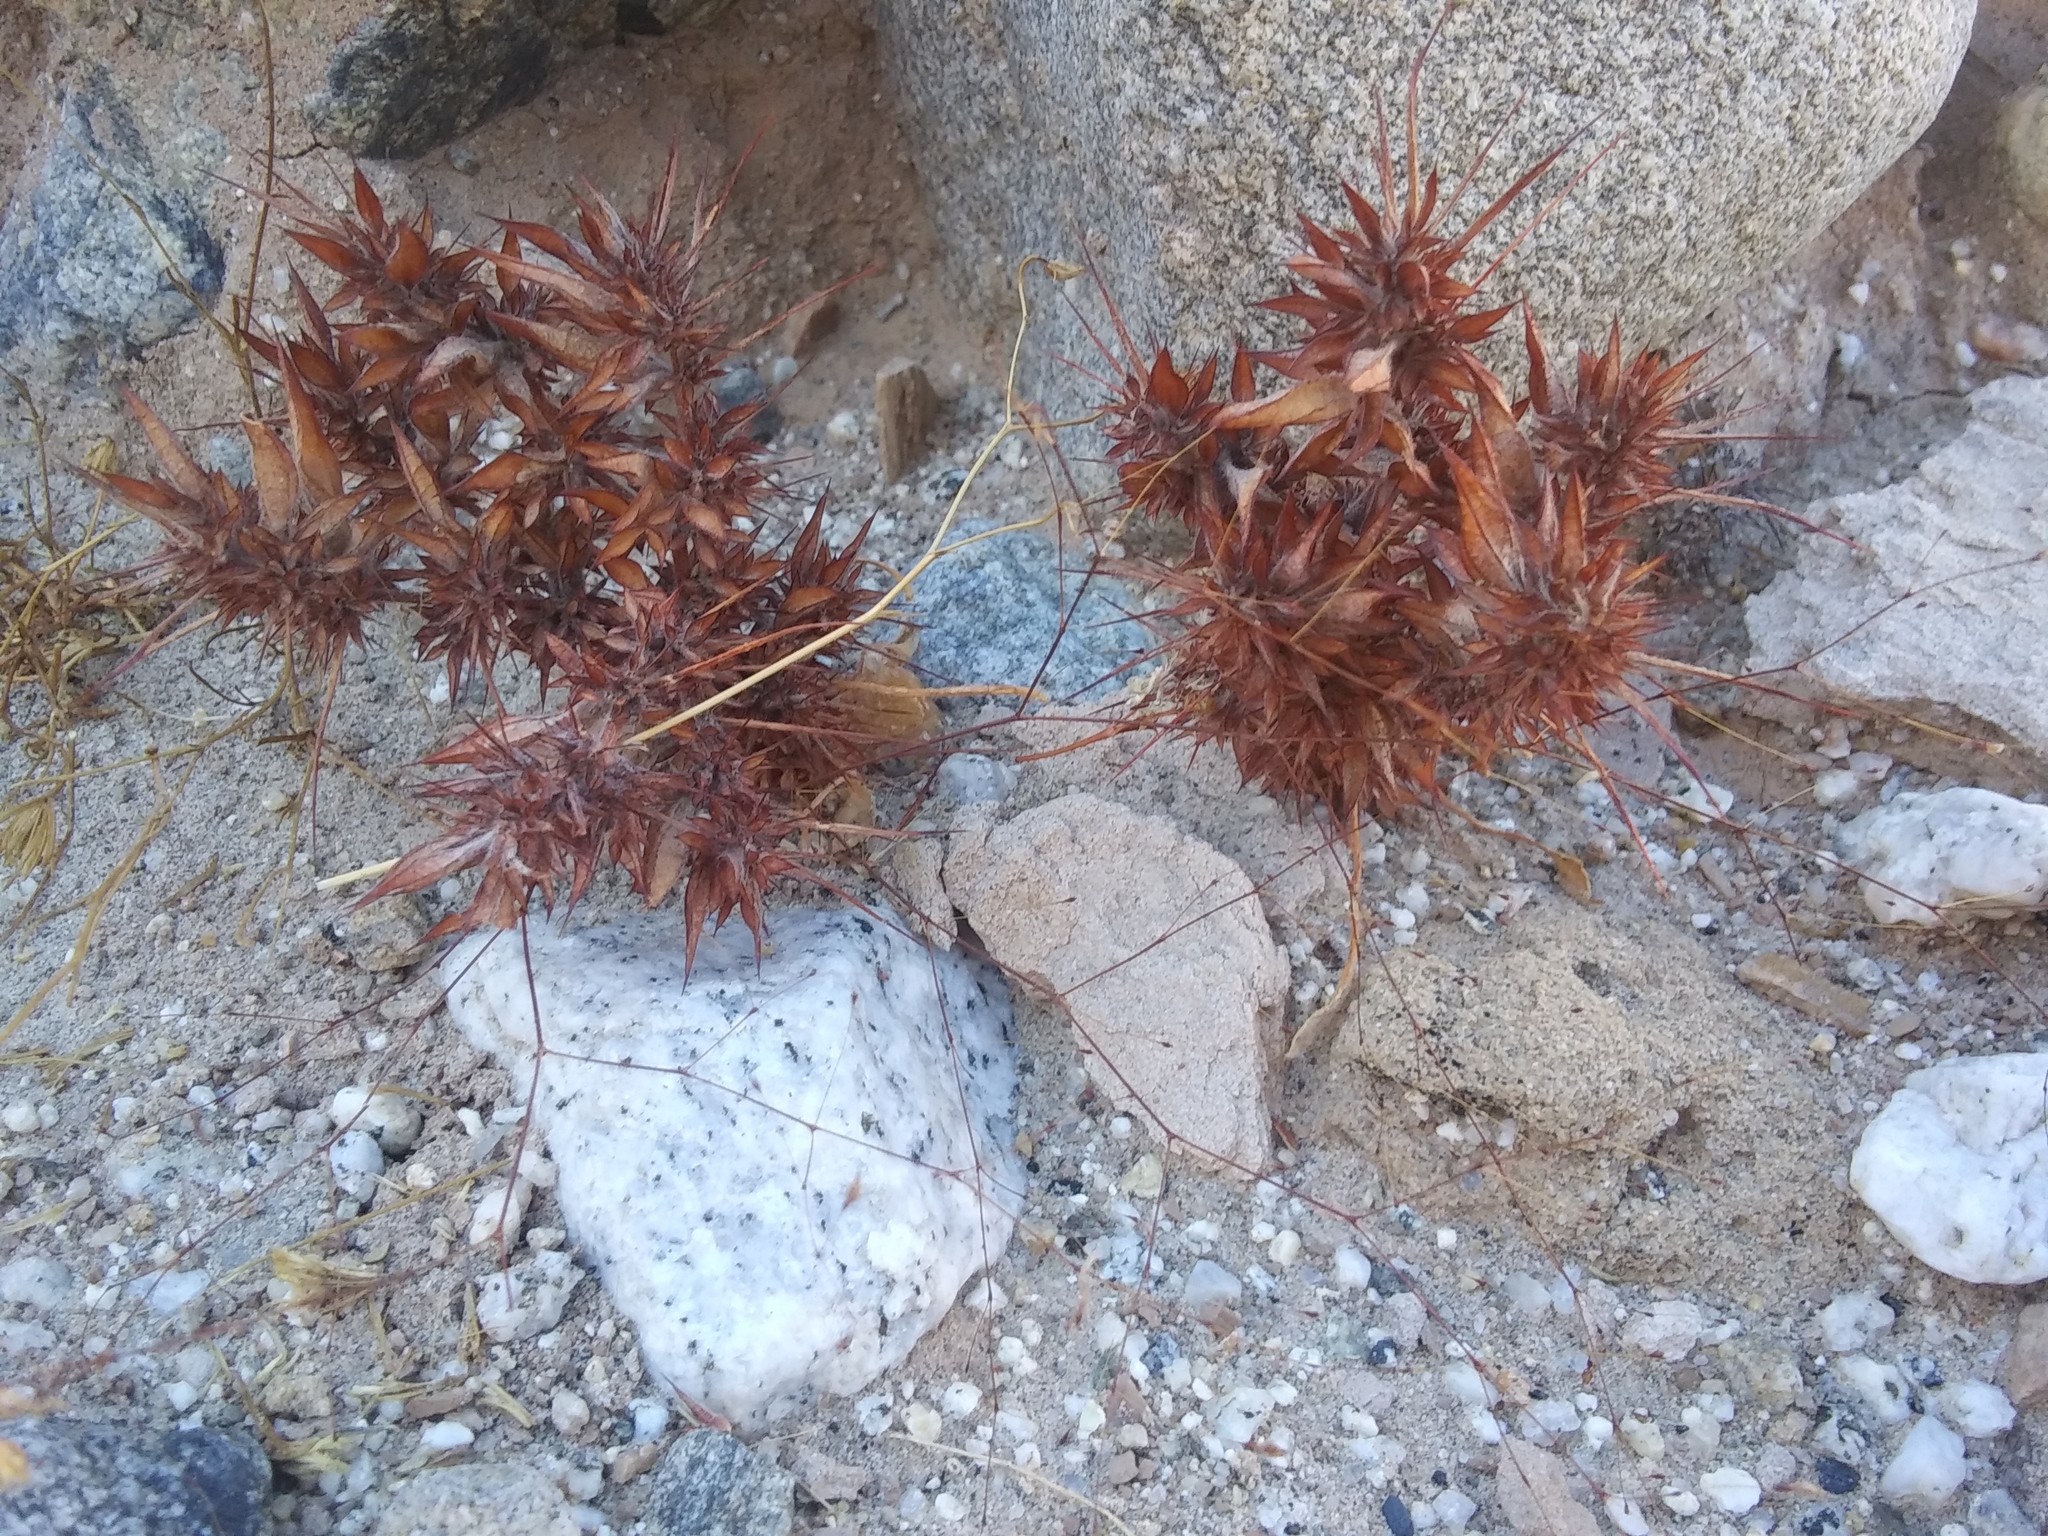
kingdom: Plantae
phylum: Tracheophyta
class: Magnoliopsida
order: Caryophyllales
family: Polygonaceae
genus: Chorizanthe
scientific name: Chorizanthe rigida
